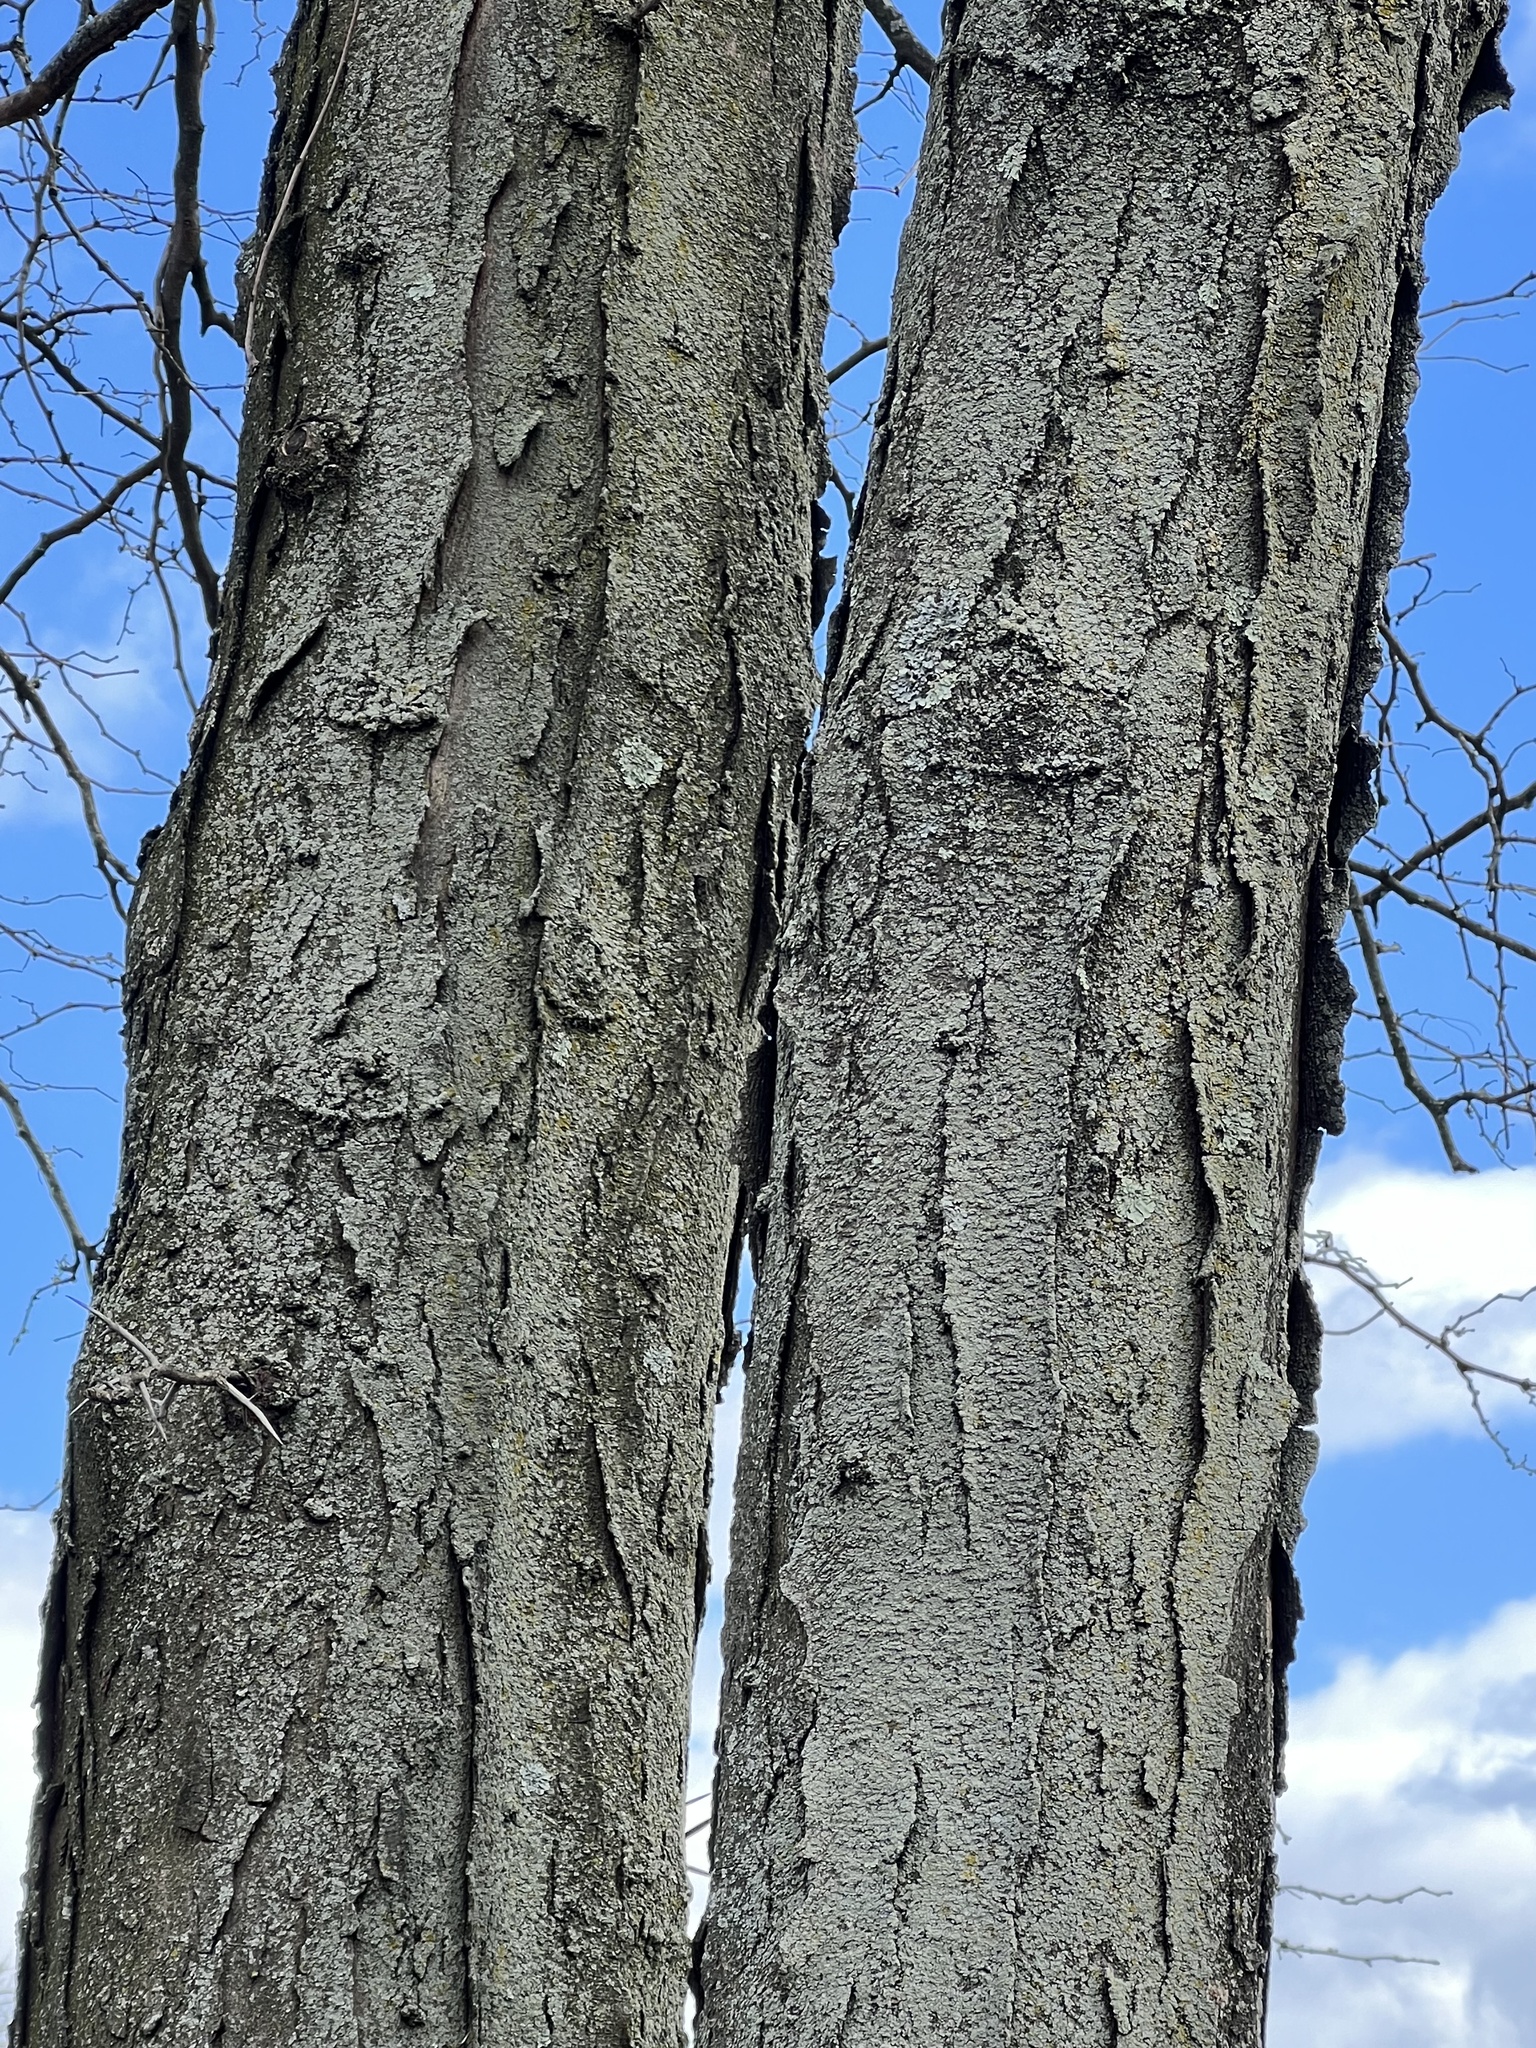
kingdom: Plantae
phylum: Tracheophyta
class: Magnoliopsida
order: Fabales
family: Fabaceae
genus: Gleditsia
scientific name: Gleditsia triacanthos
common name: Common honeylocust
